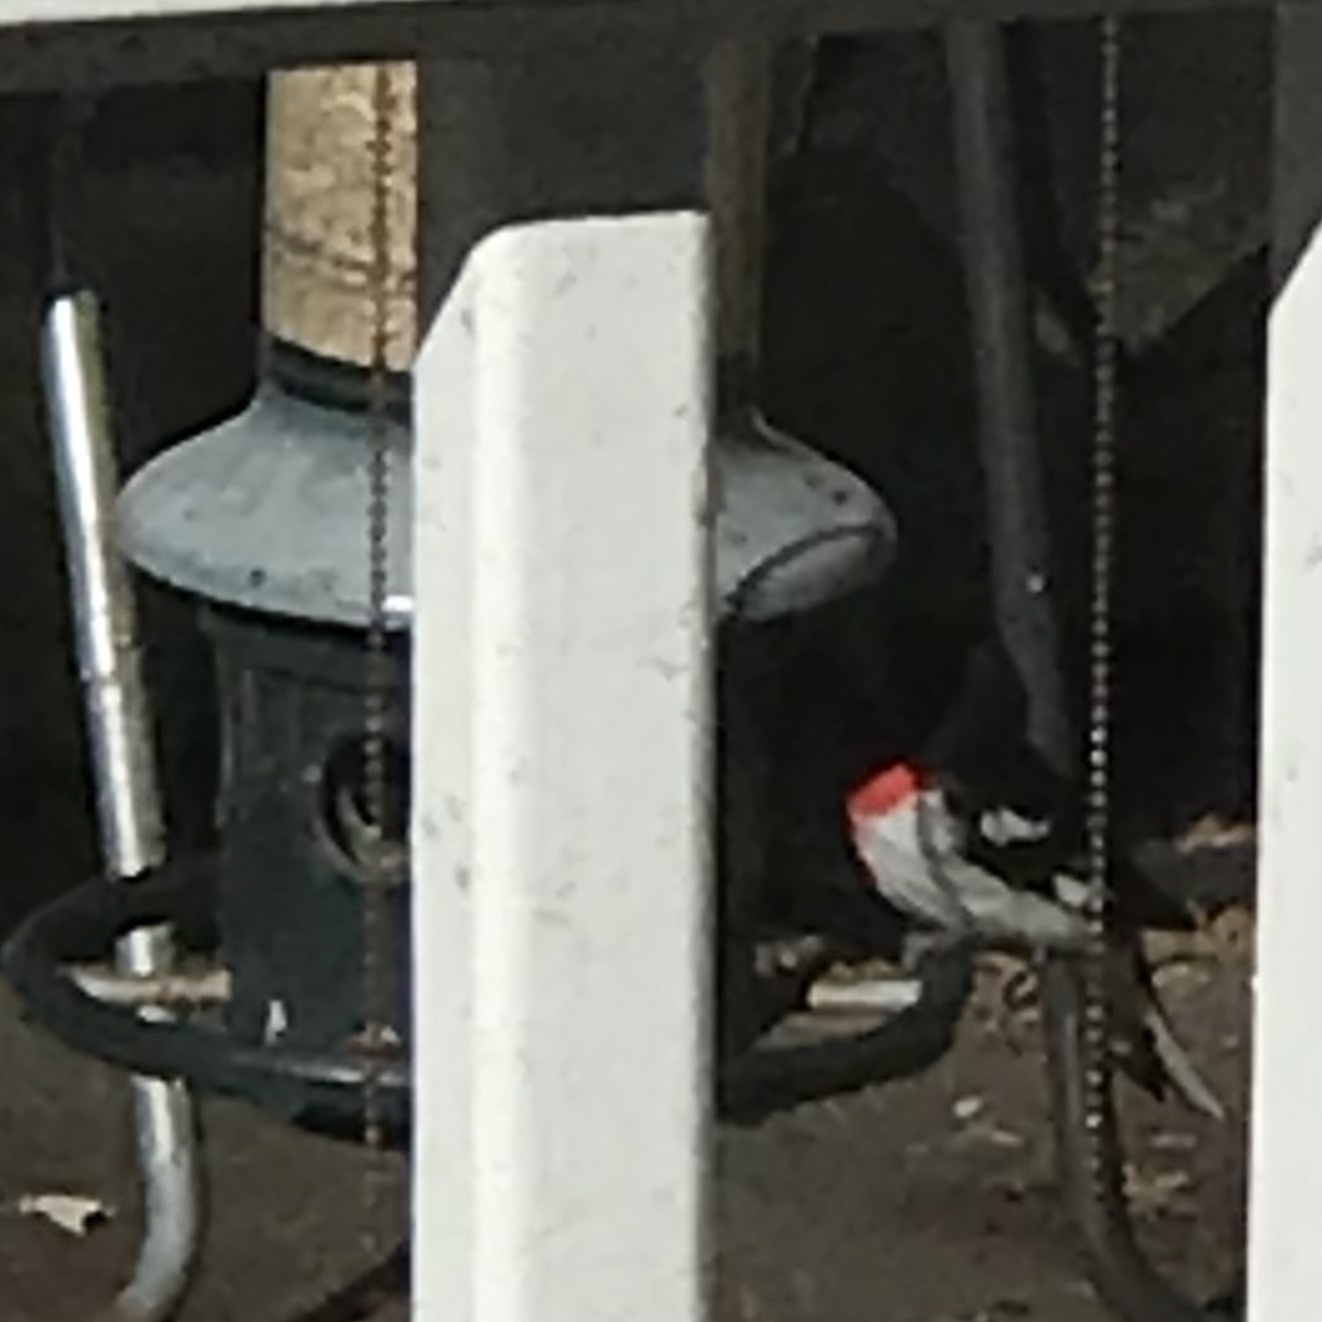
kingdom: Animalia
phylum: Chordata
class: Aves
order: Passeriformes
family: Cardinalidae
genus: Pheucticus
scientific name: Pheucticus ludovicianus
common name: Rose-breasted grosbeak
